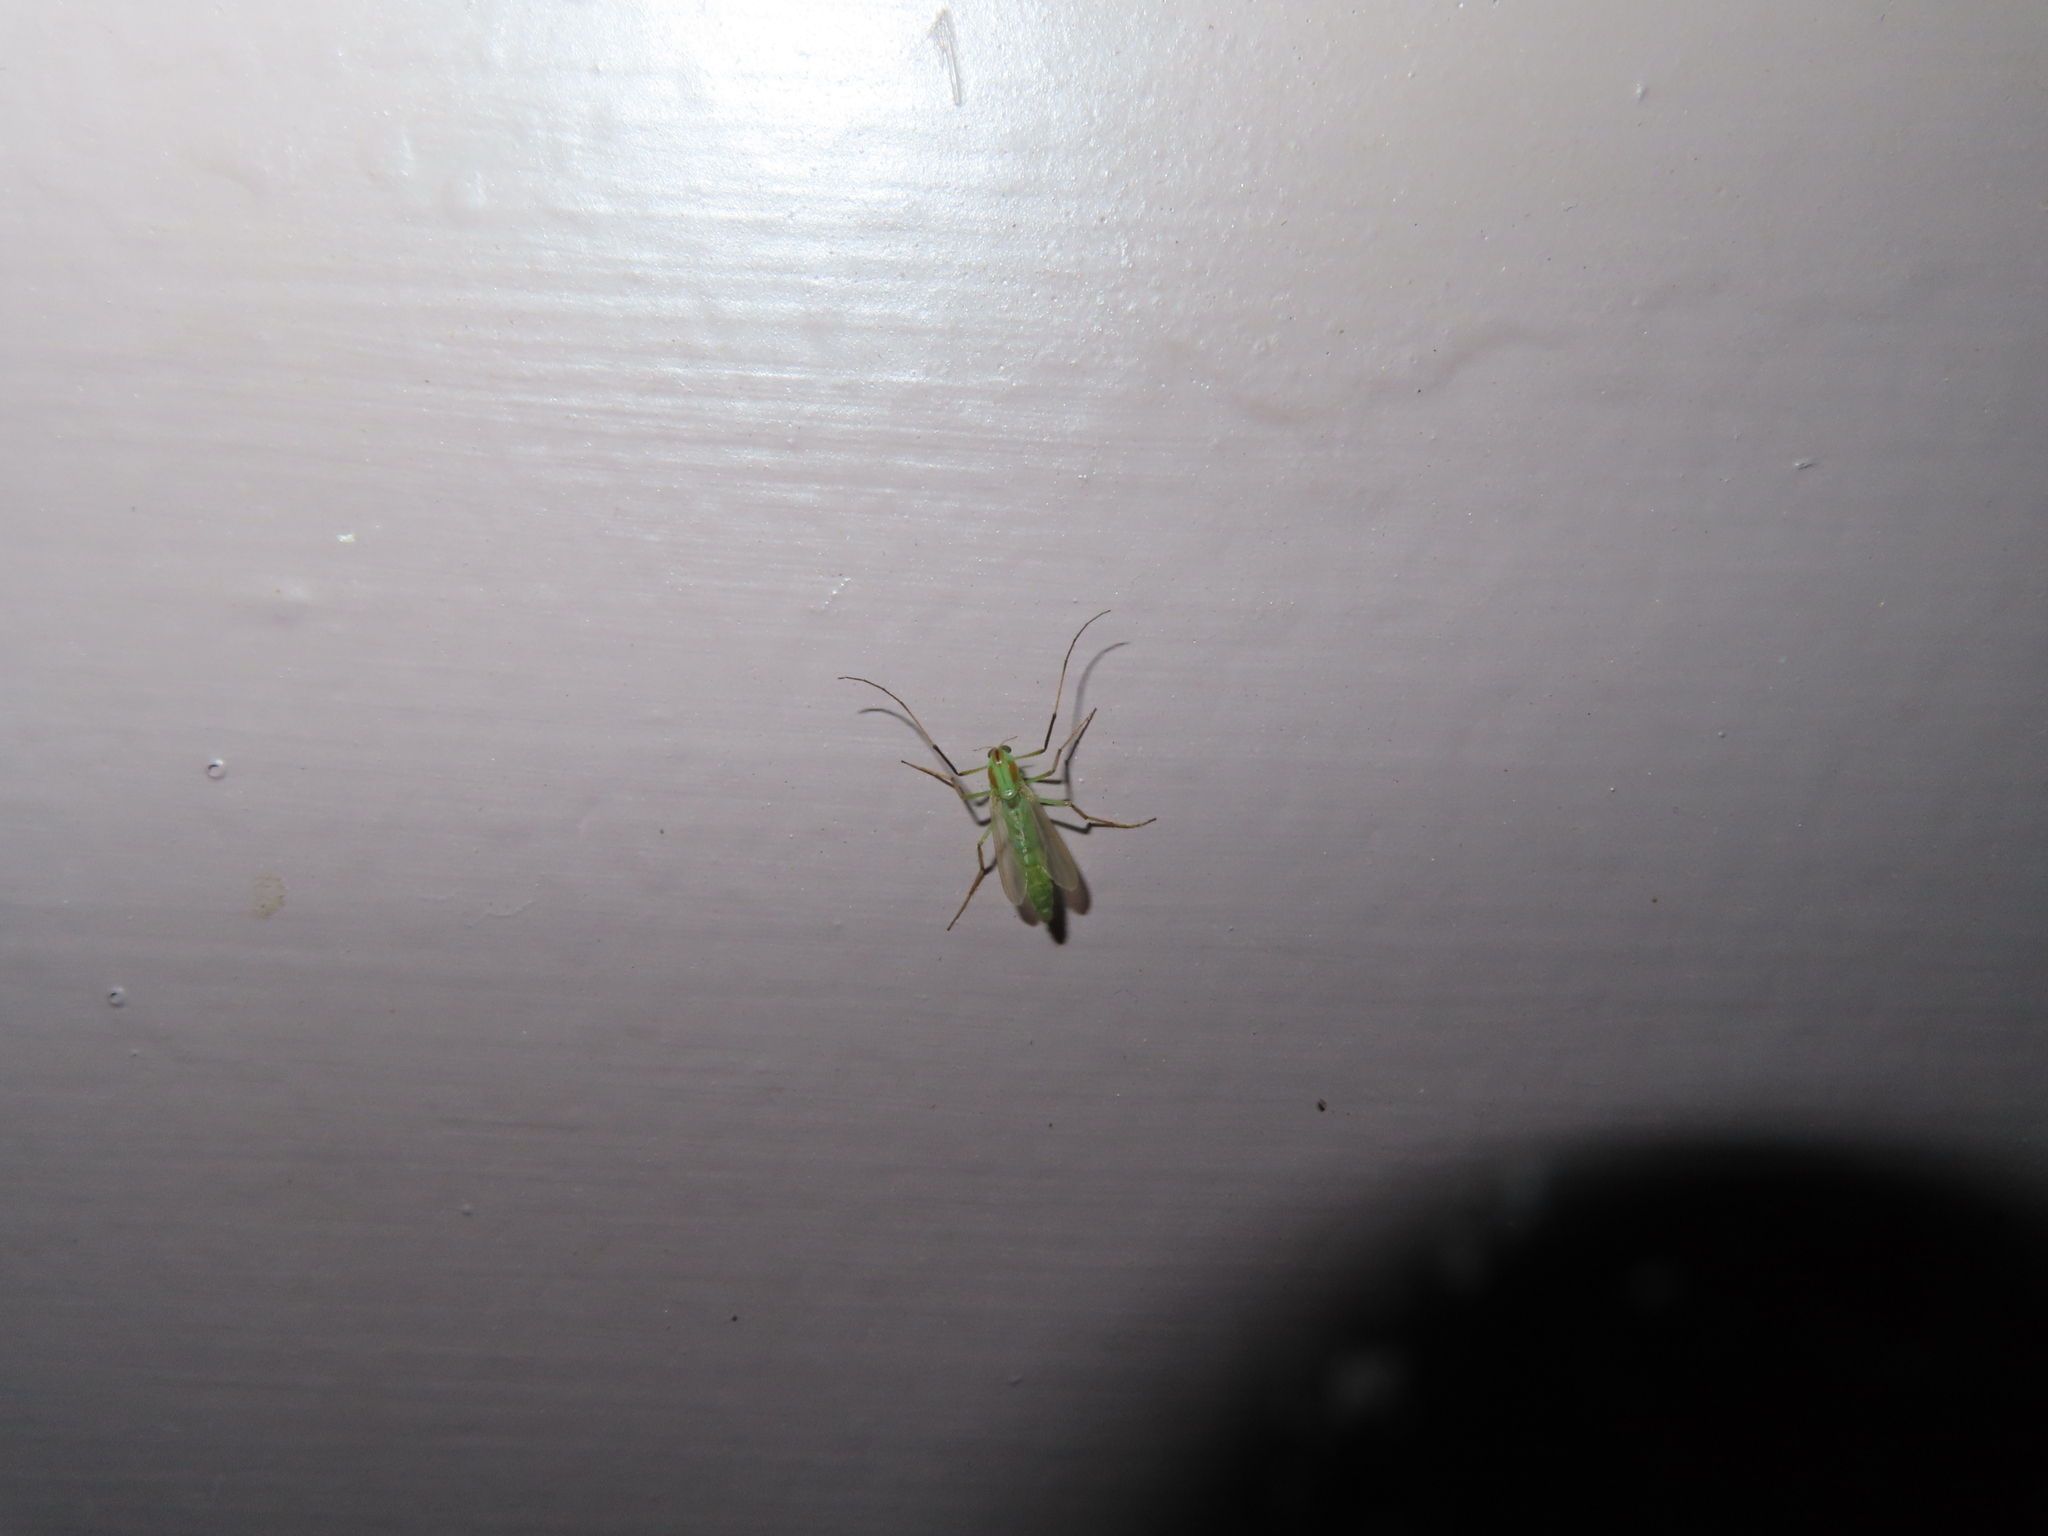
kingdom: Animalia
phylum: Arthropoda
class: Insecta
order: Diptera
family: Chironomidae
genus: Axarus
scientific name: Axarus
